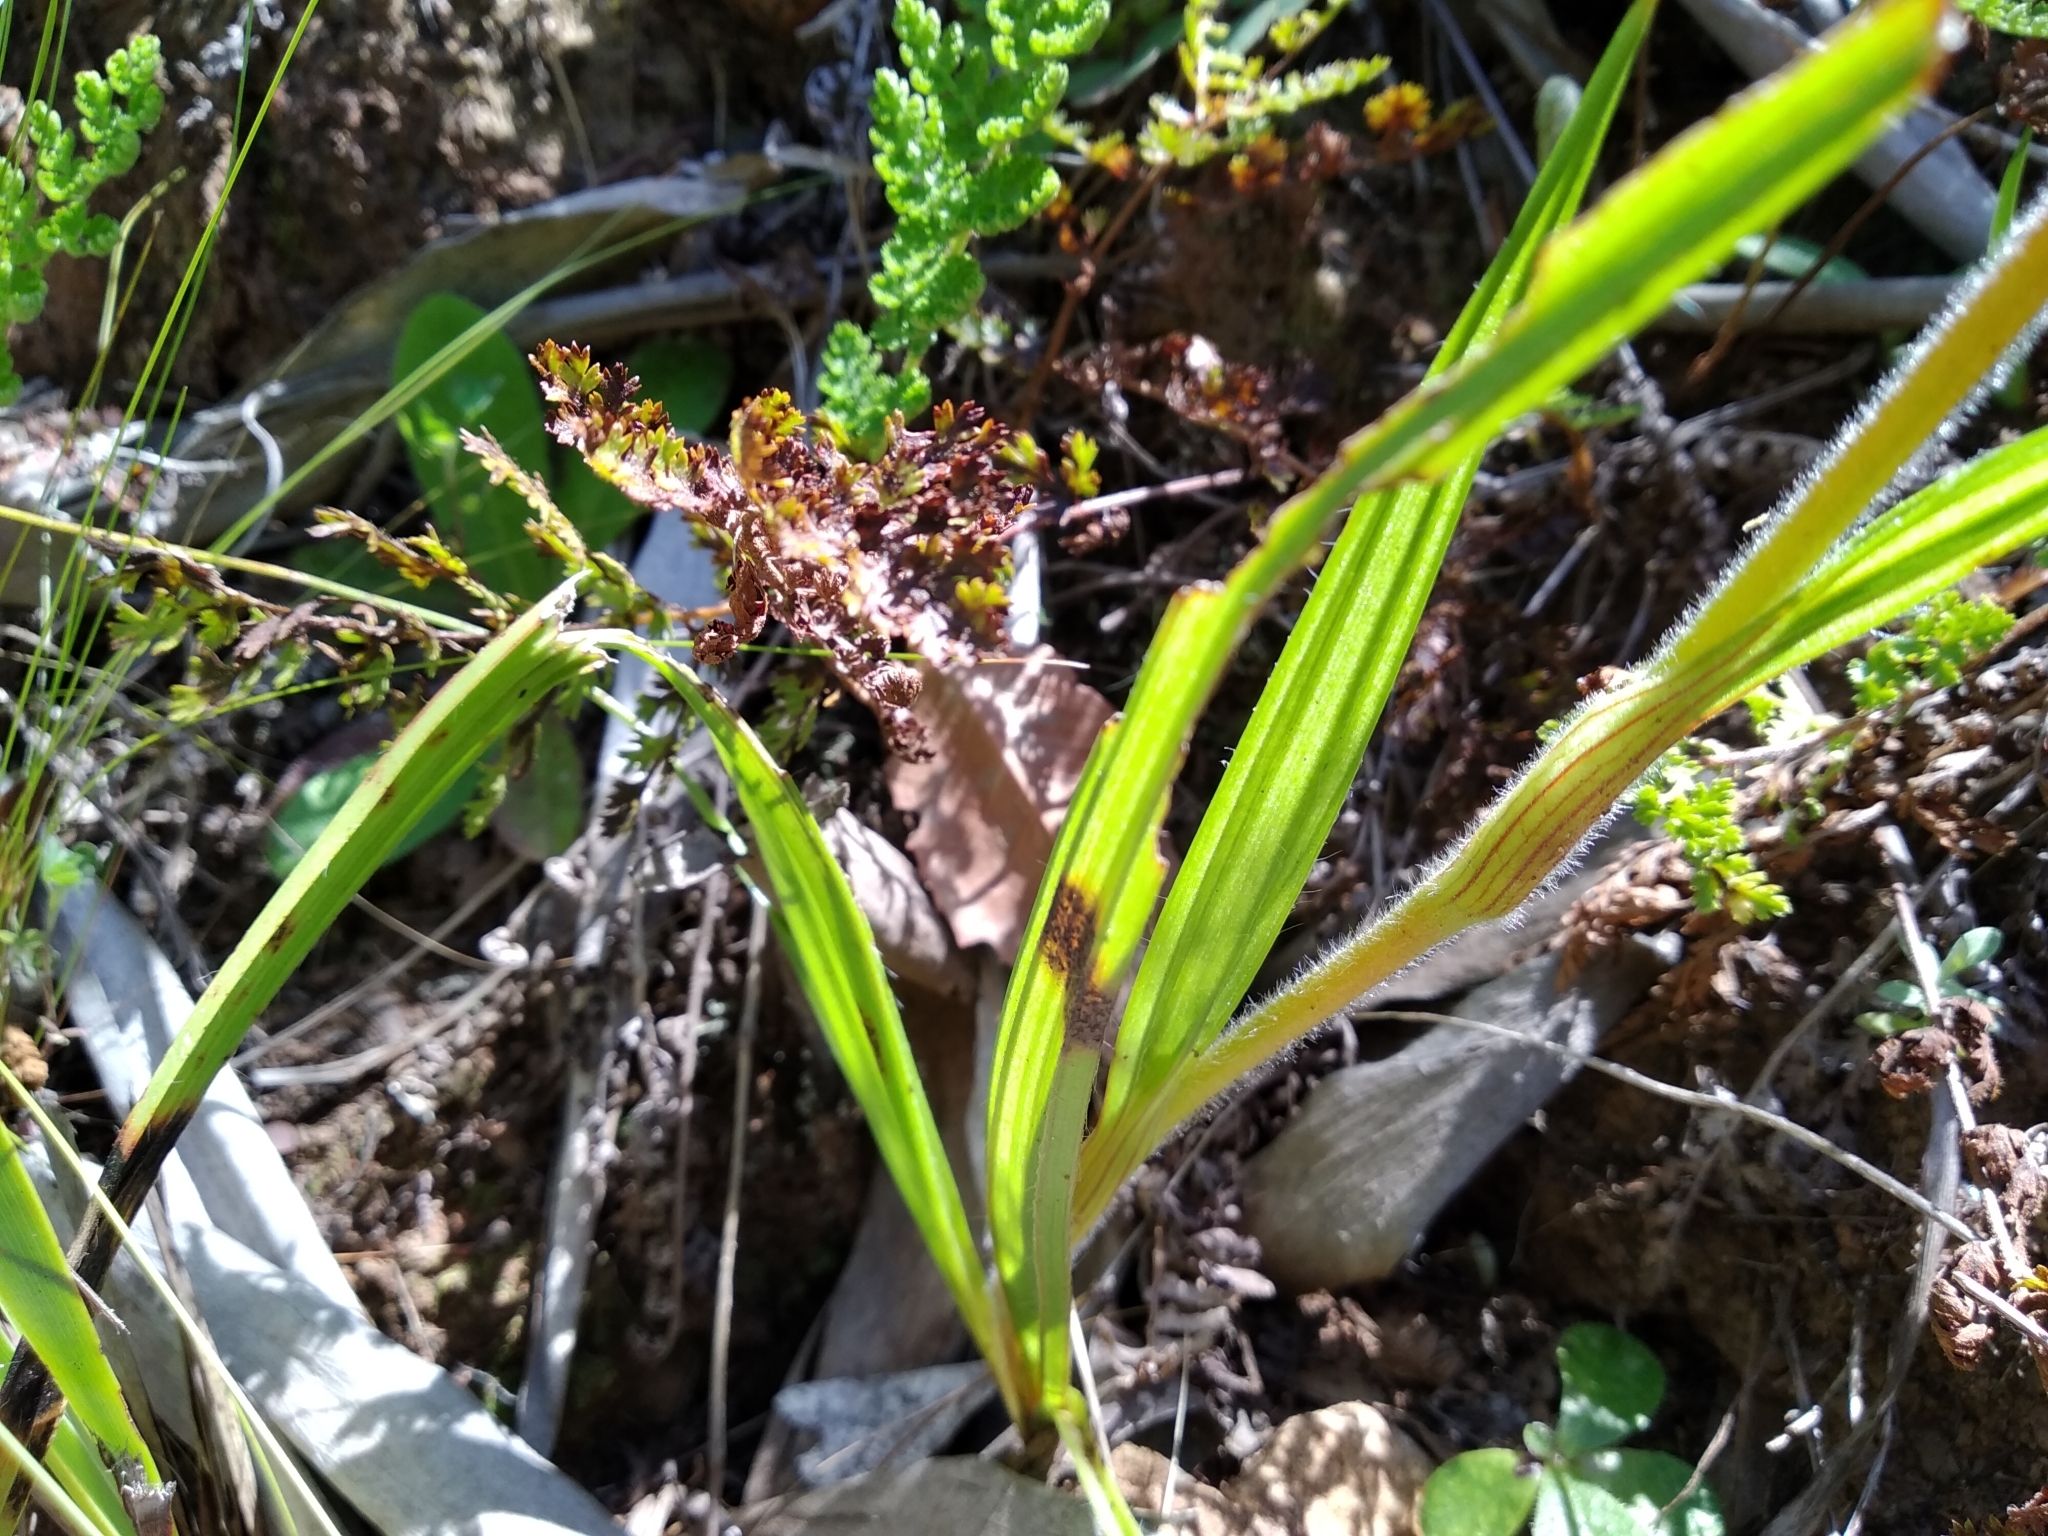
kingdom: Plantae
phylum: Tracheophyta
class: Liliopsida
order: Commelinales
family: Haemodoraceae
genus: Wachendorfia
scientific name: Wachendorfia brachyandra
